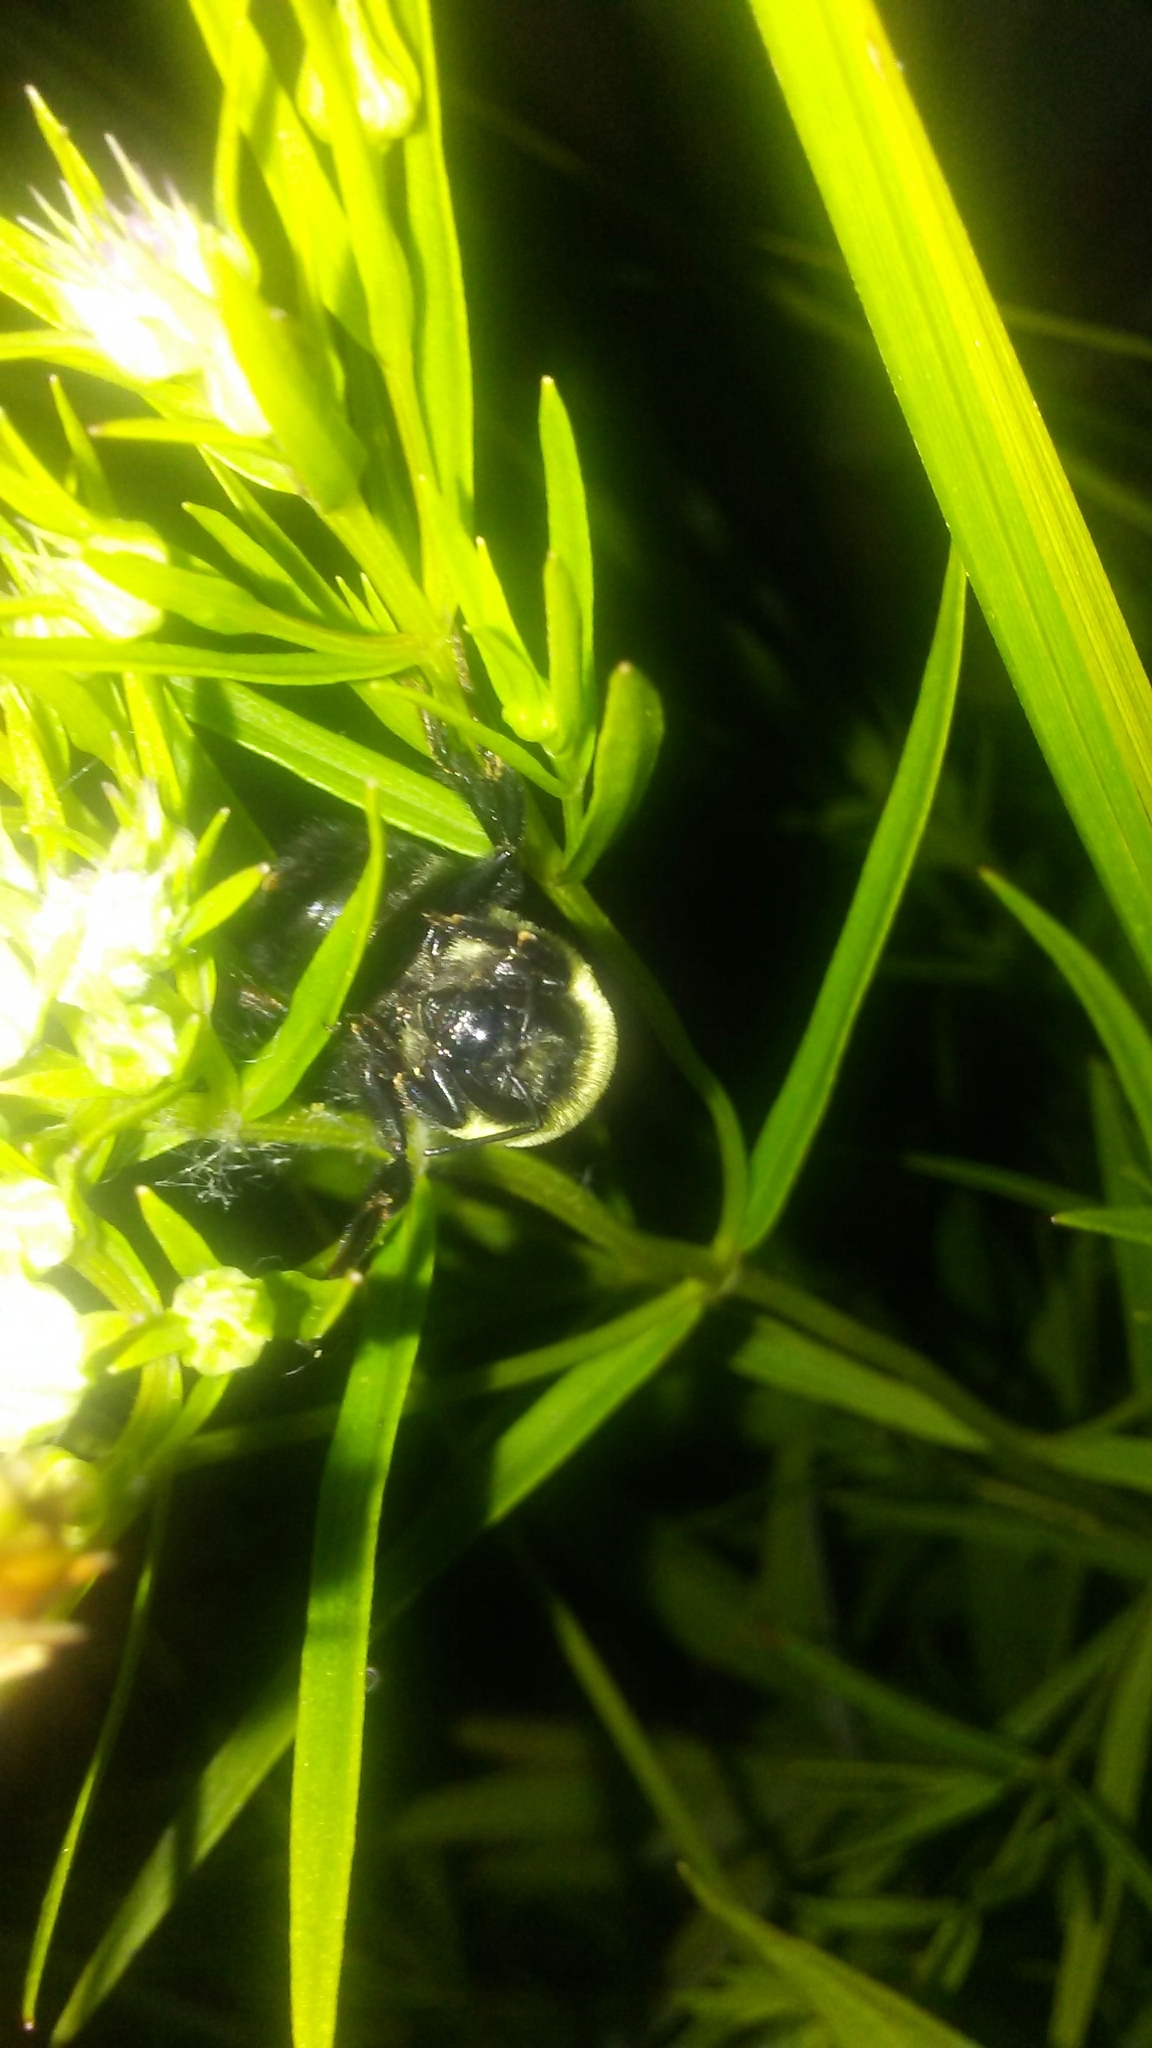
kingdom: Animalia
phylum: Arthropoda
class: Insecta
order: Hymenoptera
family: Apidae
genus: Bombus
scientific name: Bombus griseocollis
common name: Brown-belted bumble bee
